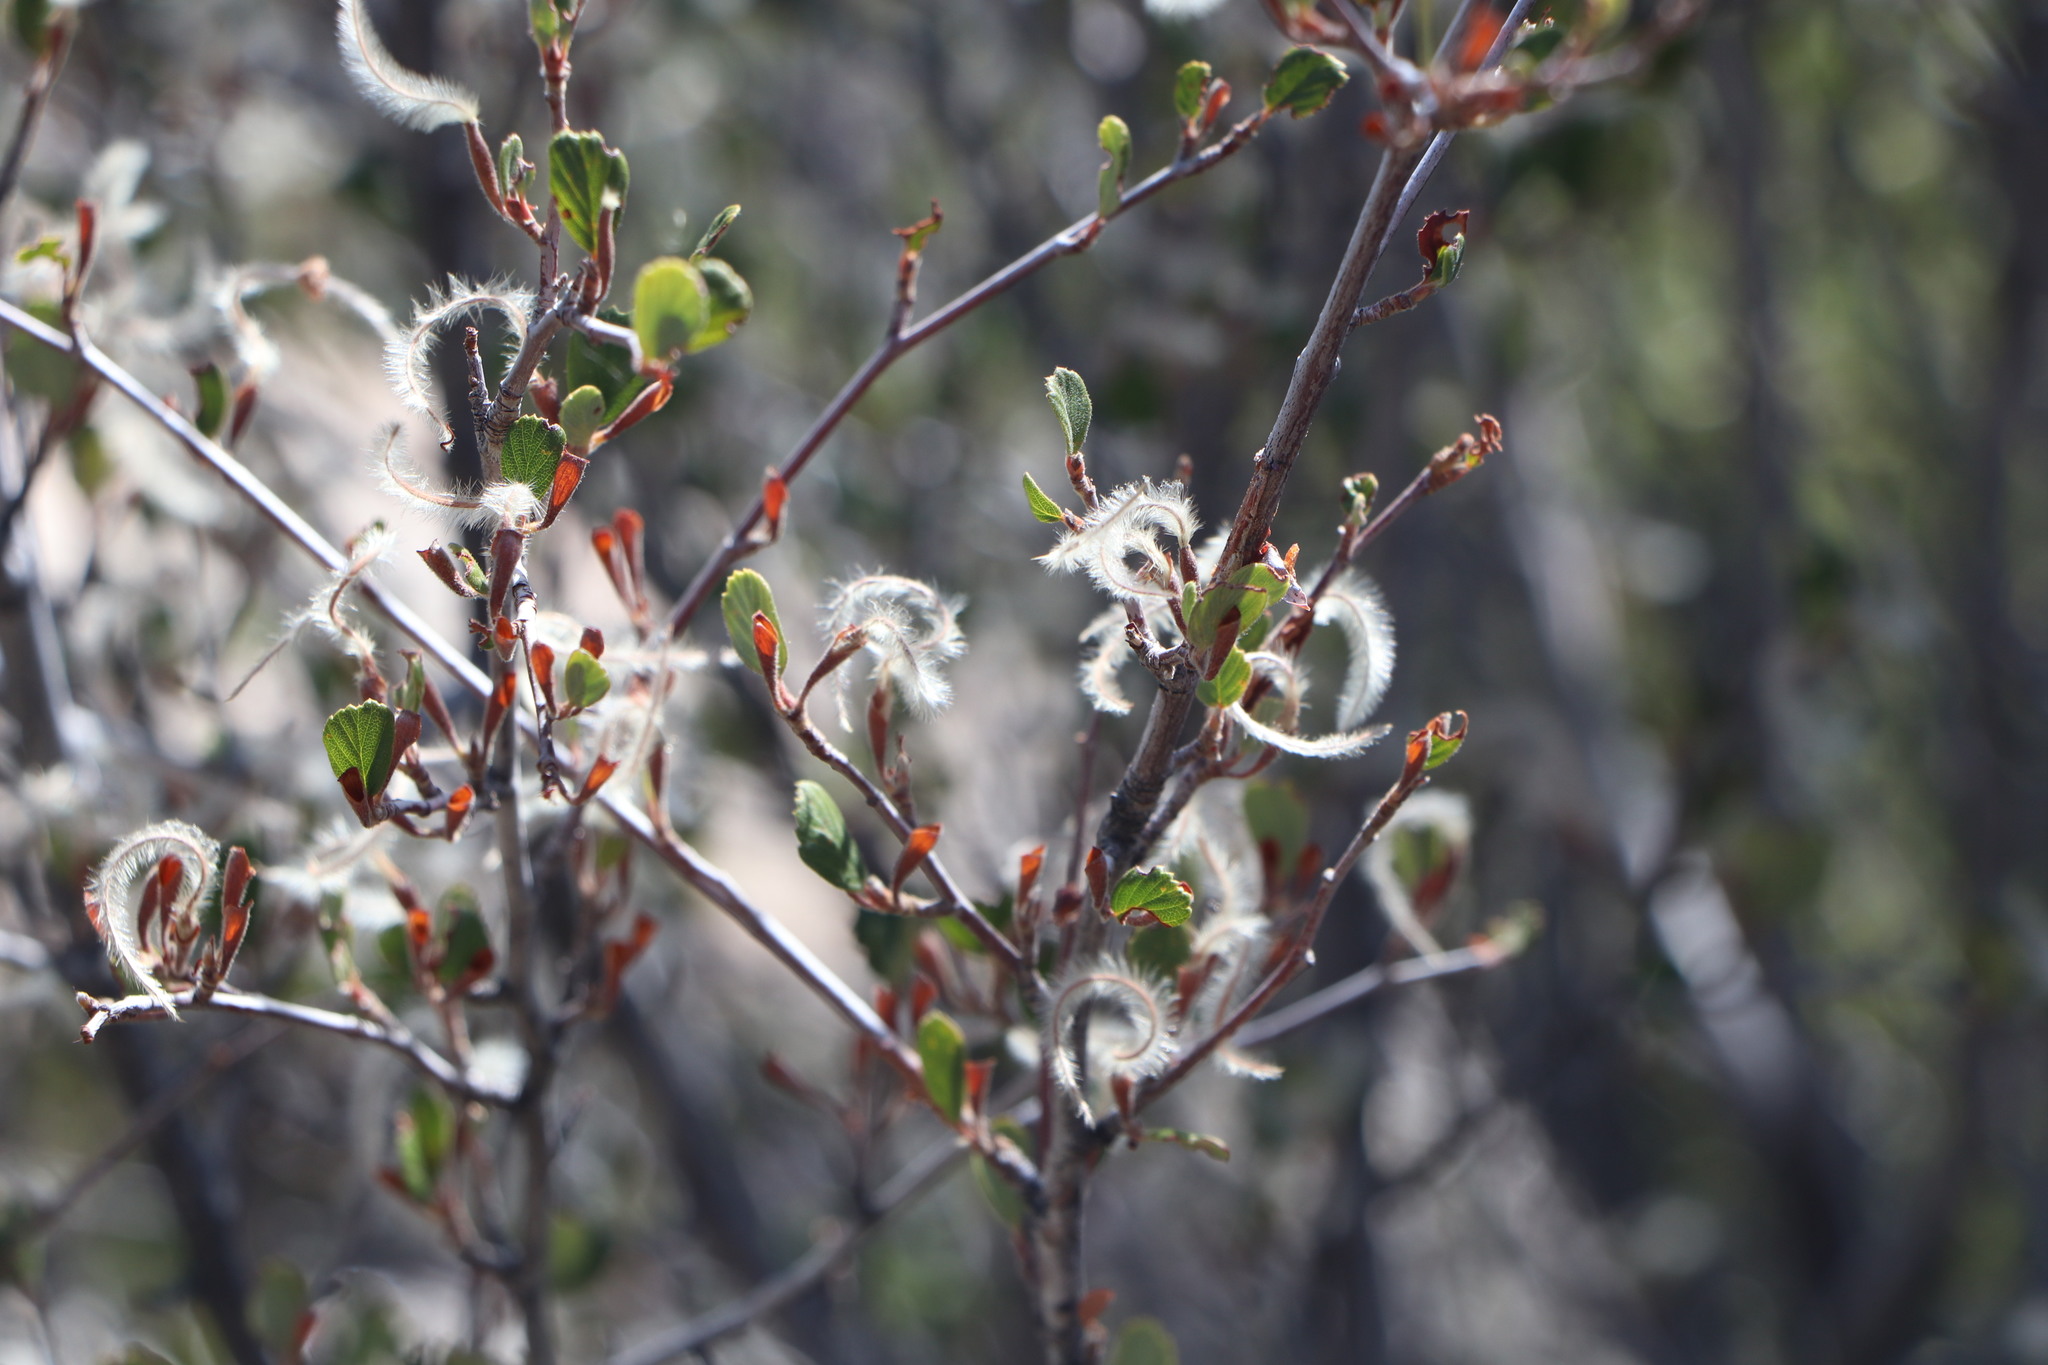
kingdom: Plantae
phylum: Tracheophyta
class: Magnoliopsida
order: Rosales
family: Rosaceae
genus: Cercocarpus
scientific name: Cercocarpus betuloides
